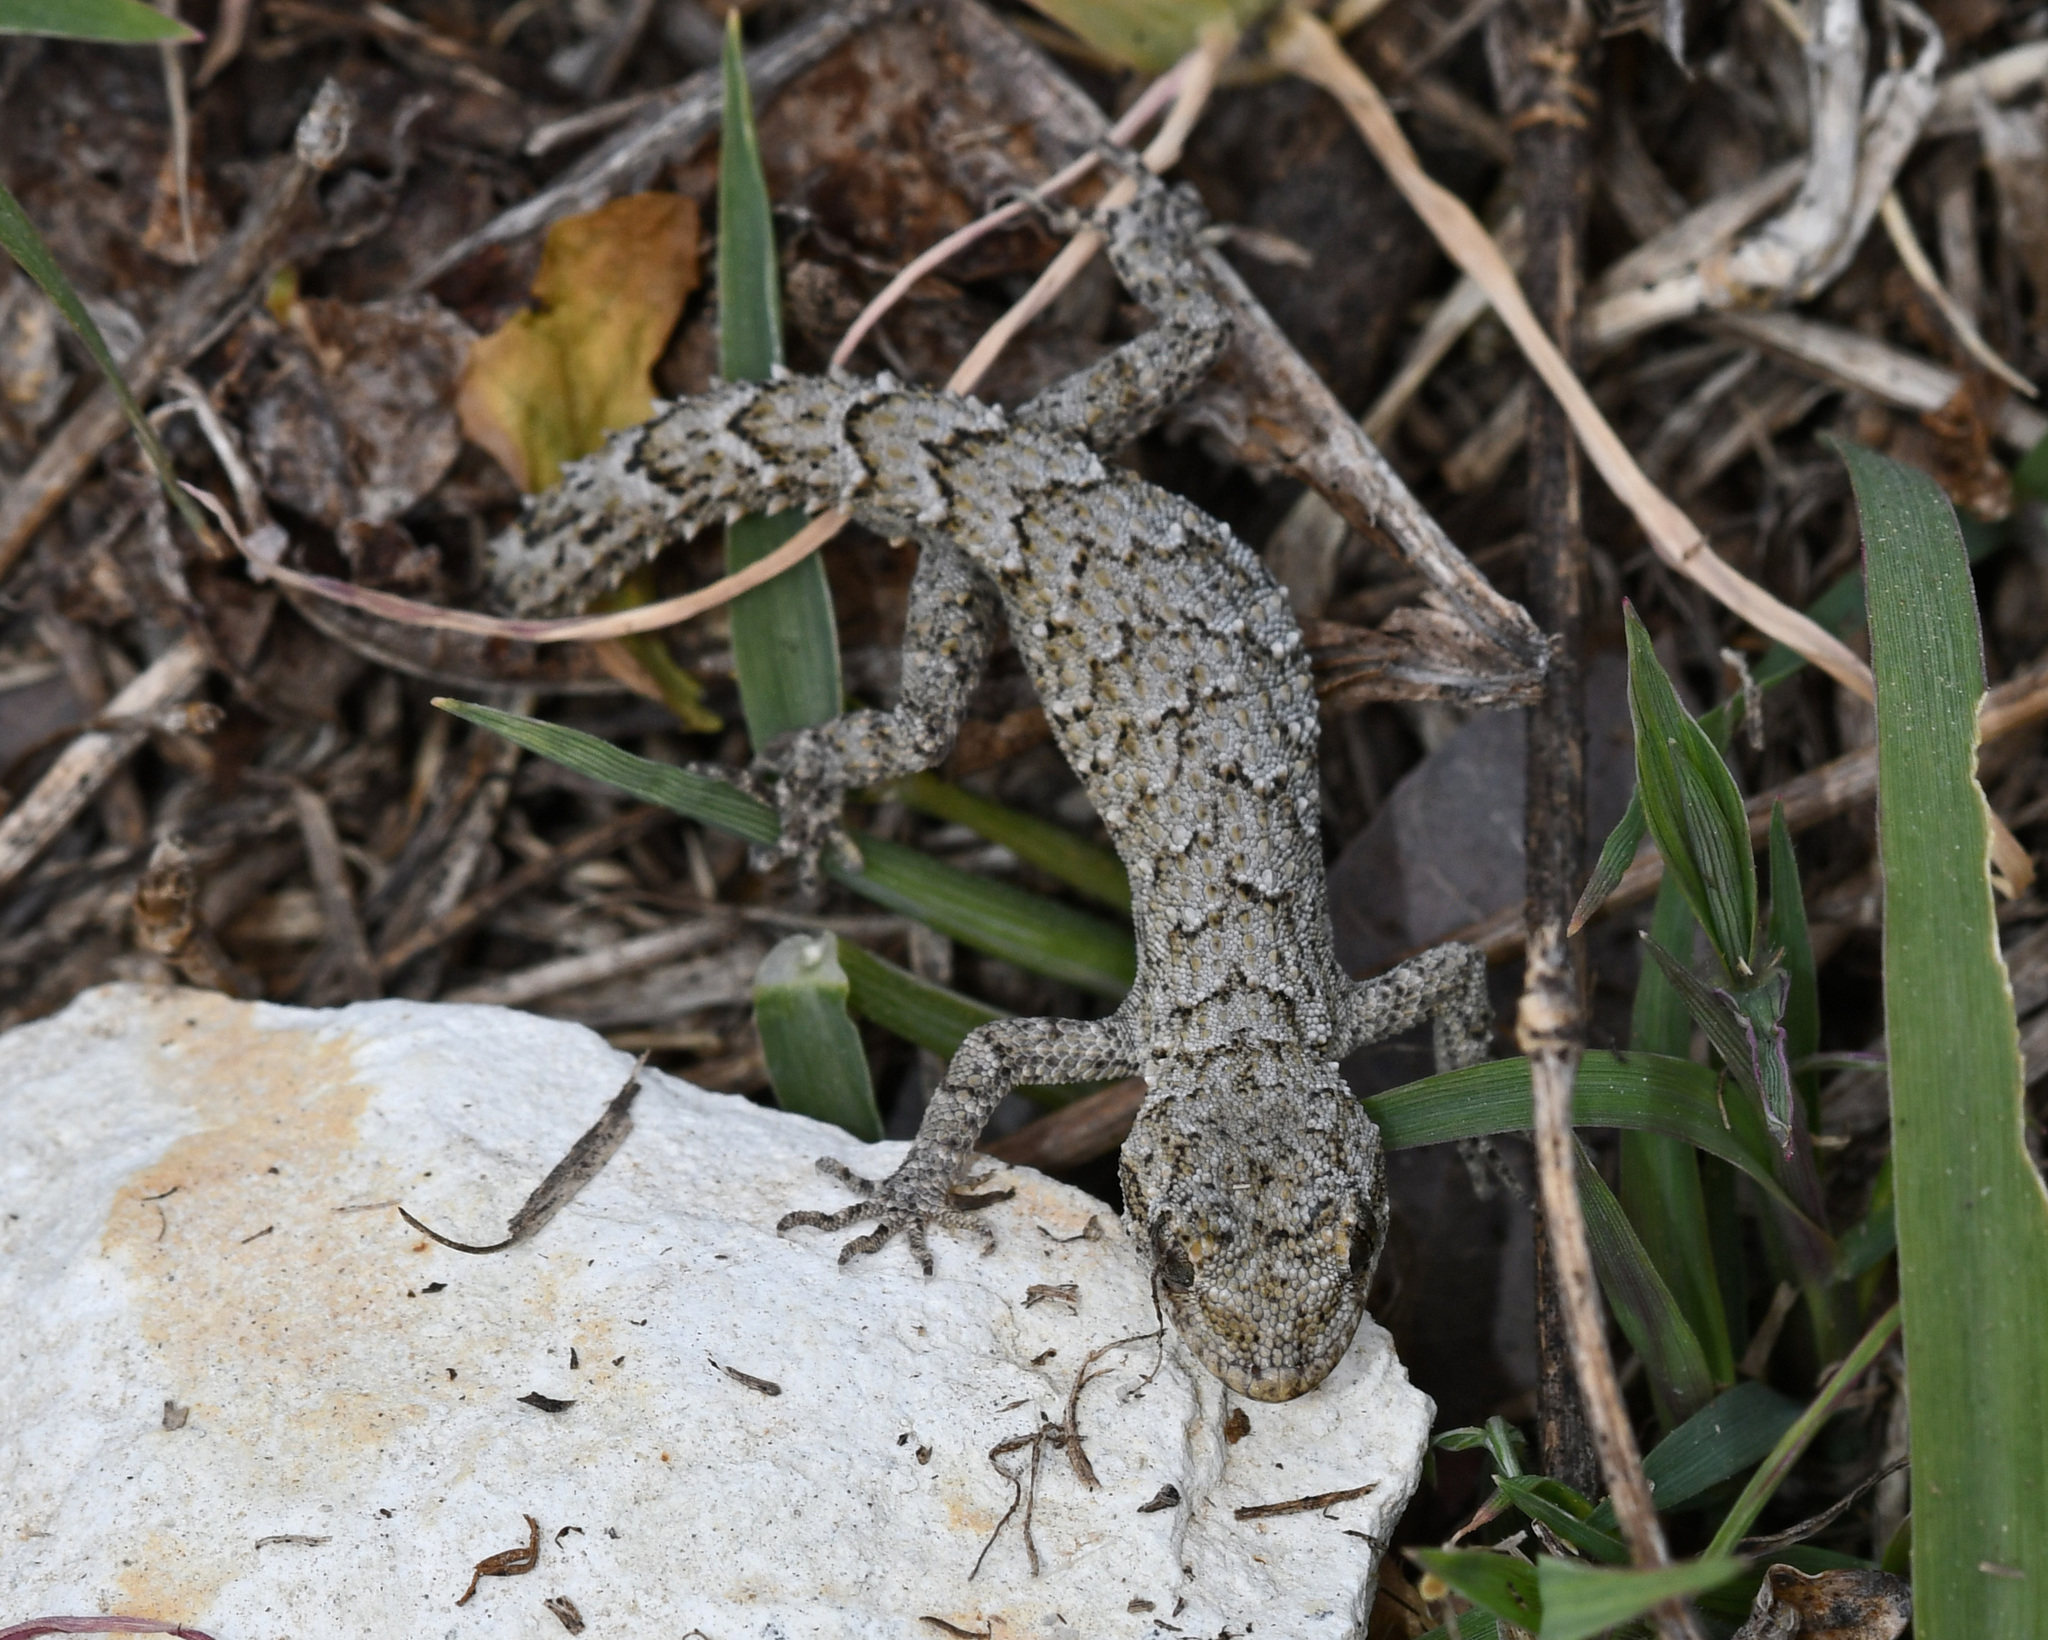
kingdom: Animalia
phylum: Chordata
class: Squamata
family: Gekkonidae
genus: Mediodactylus
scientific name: Mediodactylus orientalis
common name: Mediterranean thin-toed gecko
